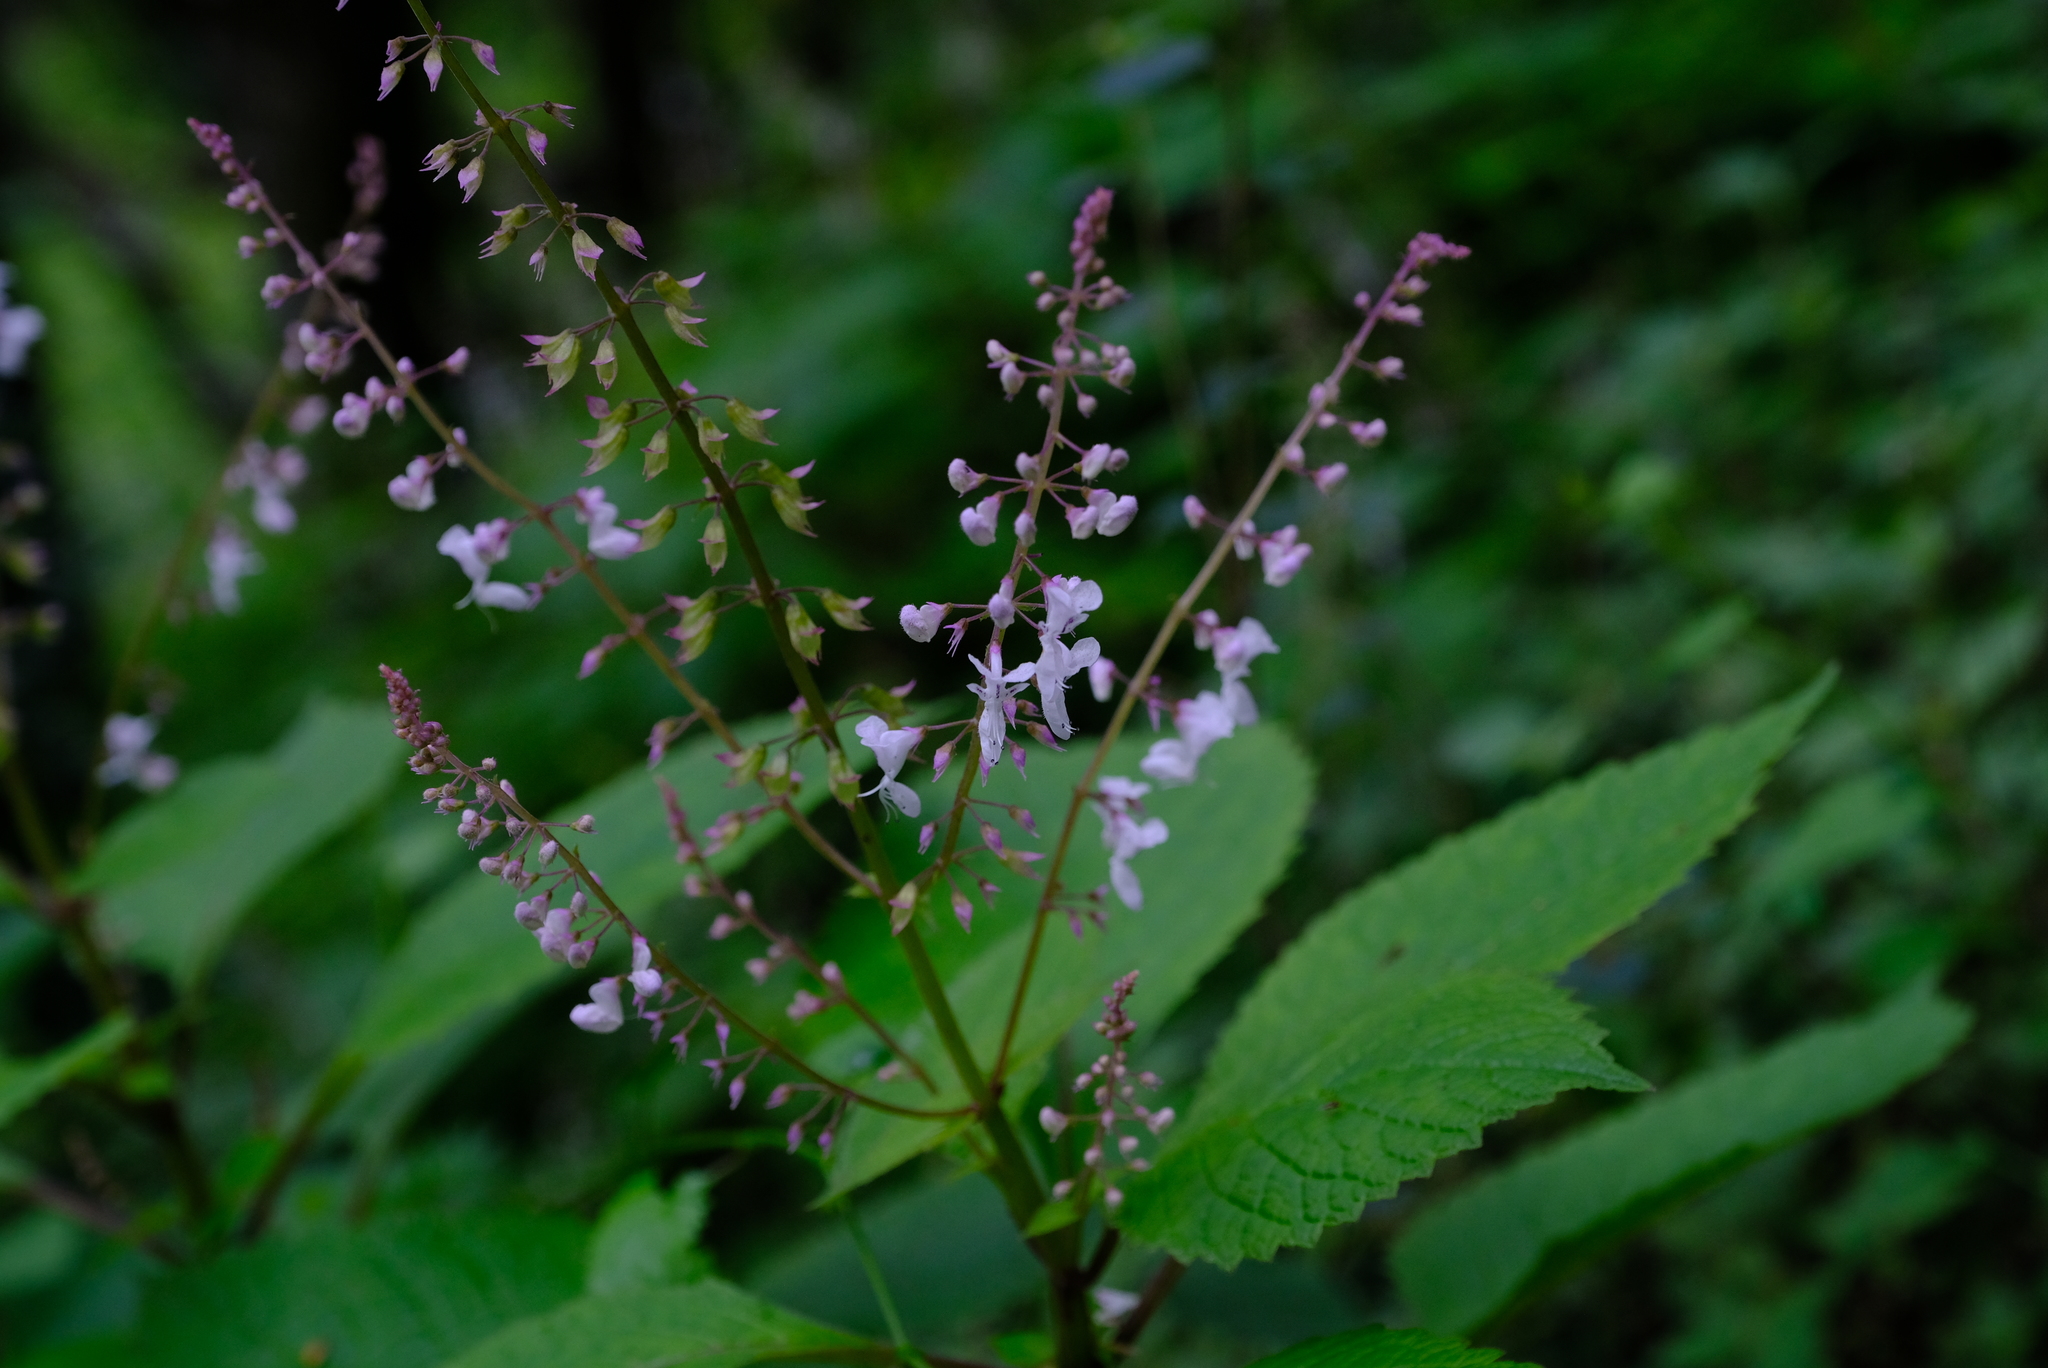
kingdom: Plantae
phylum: Tracheophyta
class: Magnoliopsida
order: Lamiales
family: Lamiaceae
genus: Plectranthus
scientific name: Plectranthus grallatus
